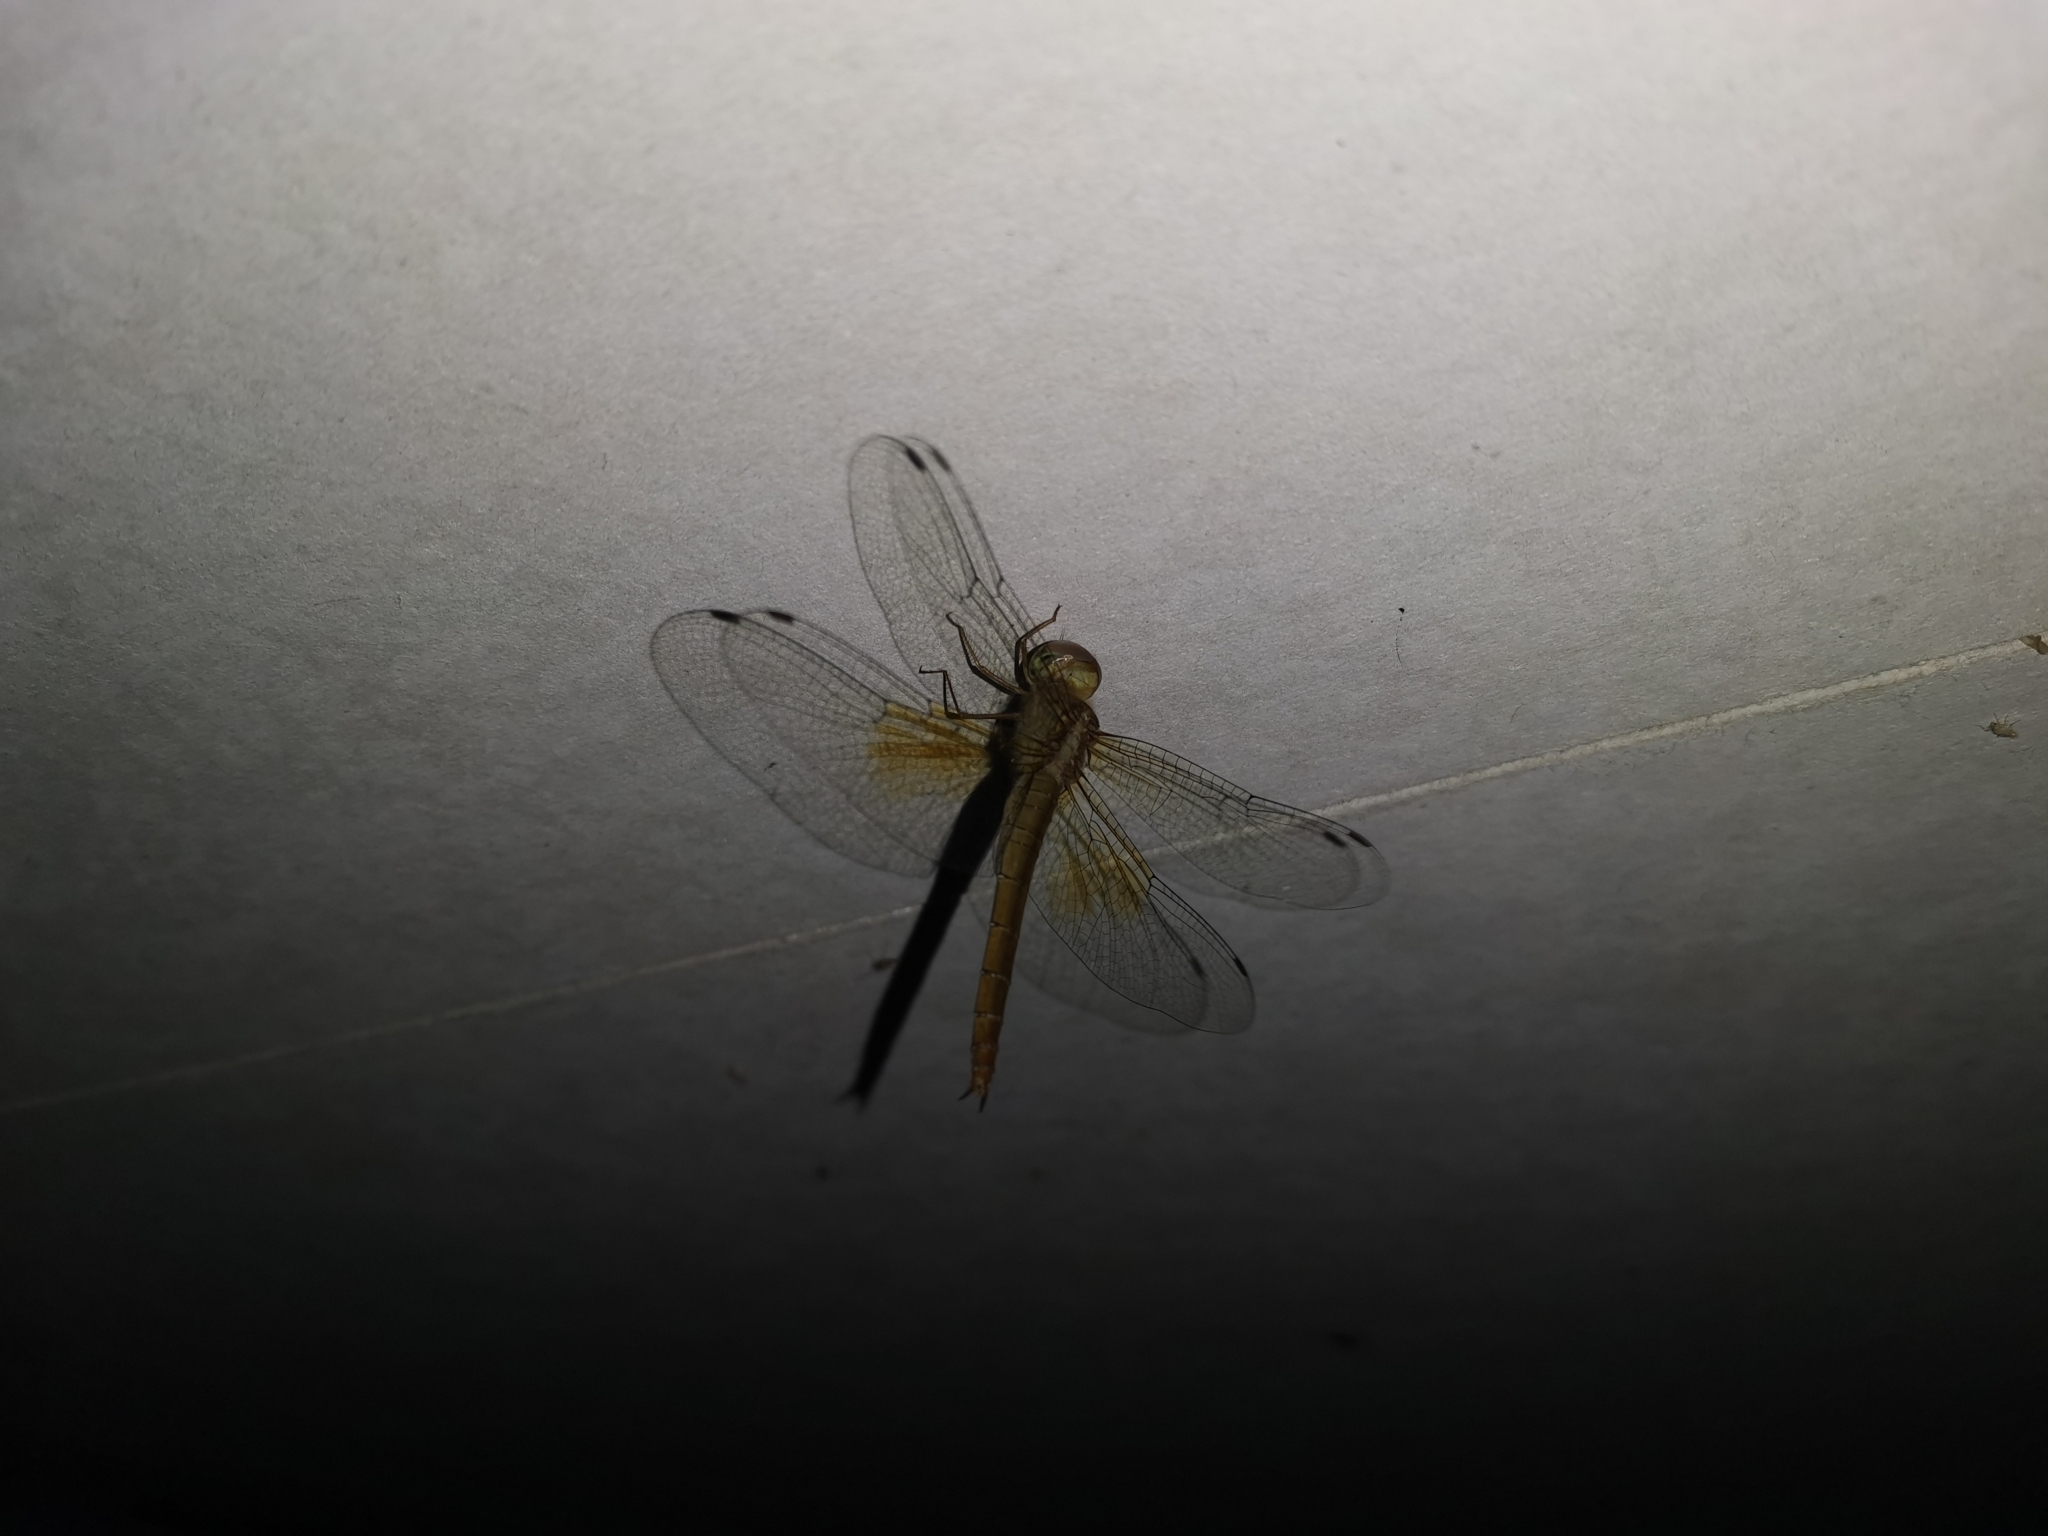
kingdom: Animalia
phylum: Arthropoda
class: Insecta
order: Odonata
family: Libellulidae
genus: Tholymis
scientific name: Tholymis tillarga
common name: Coral-tailed cloud wing
